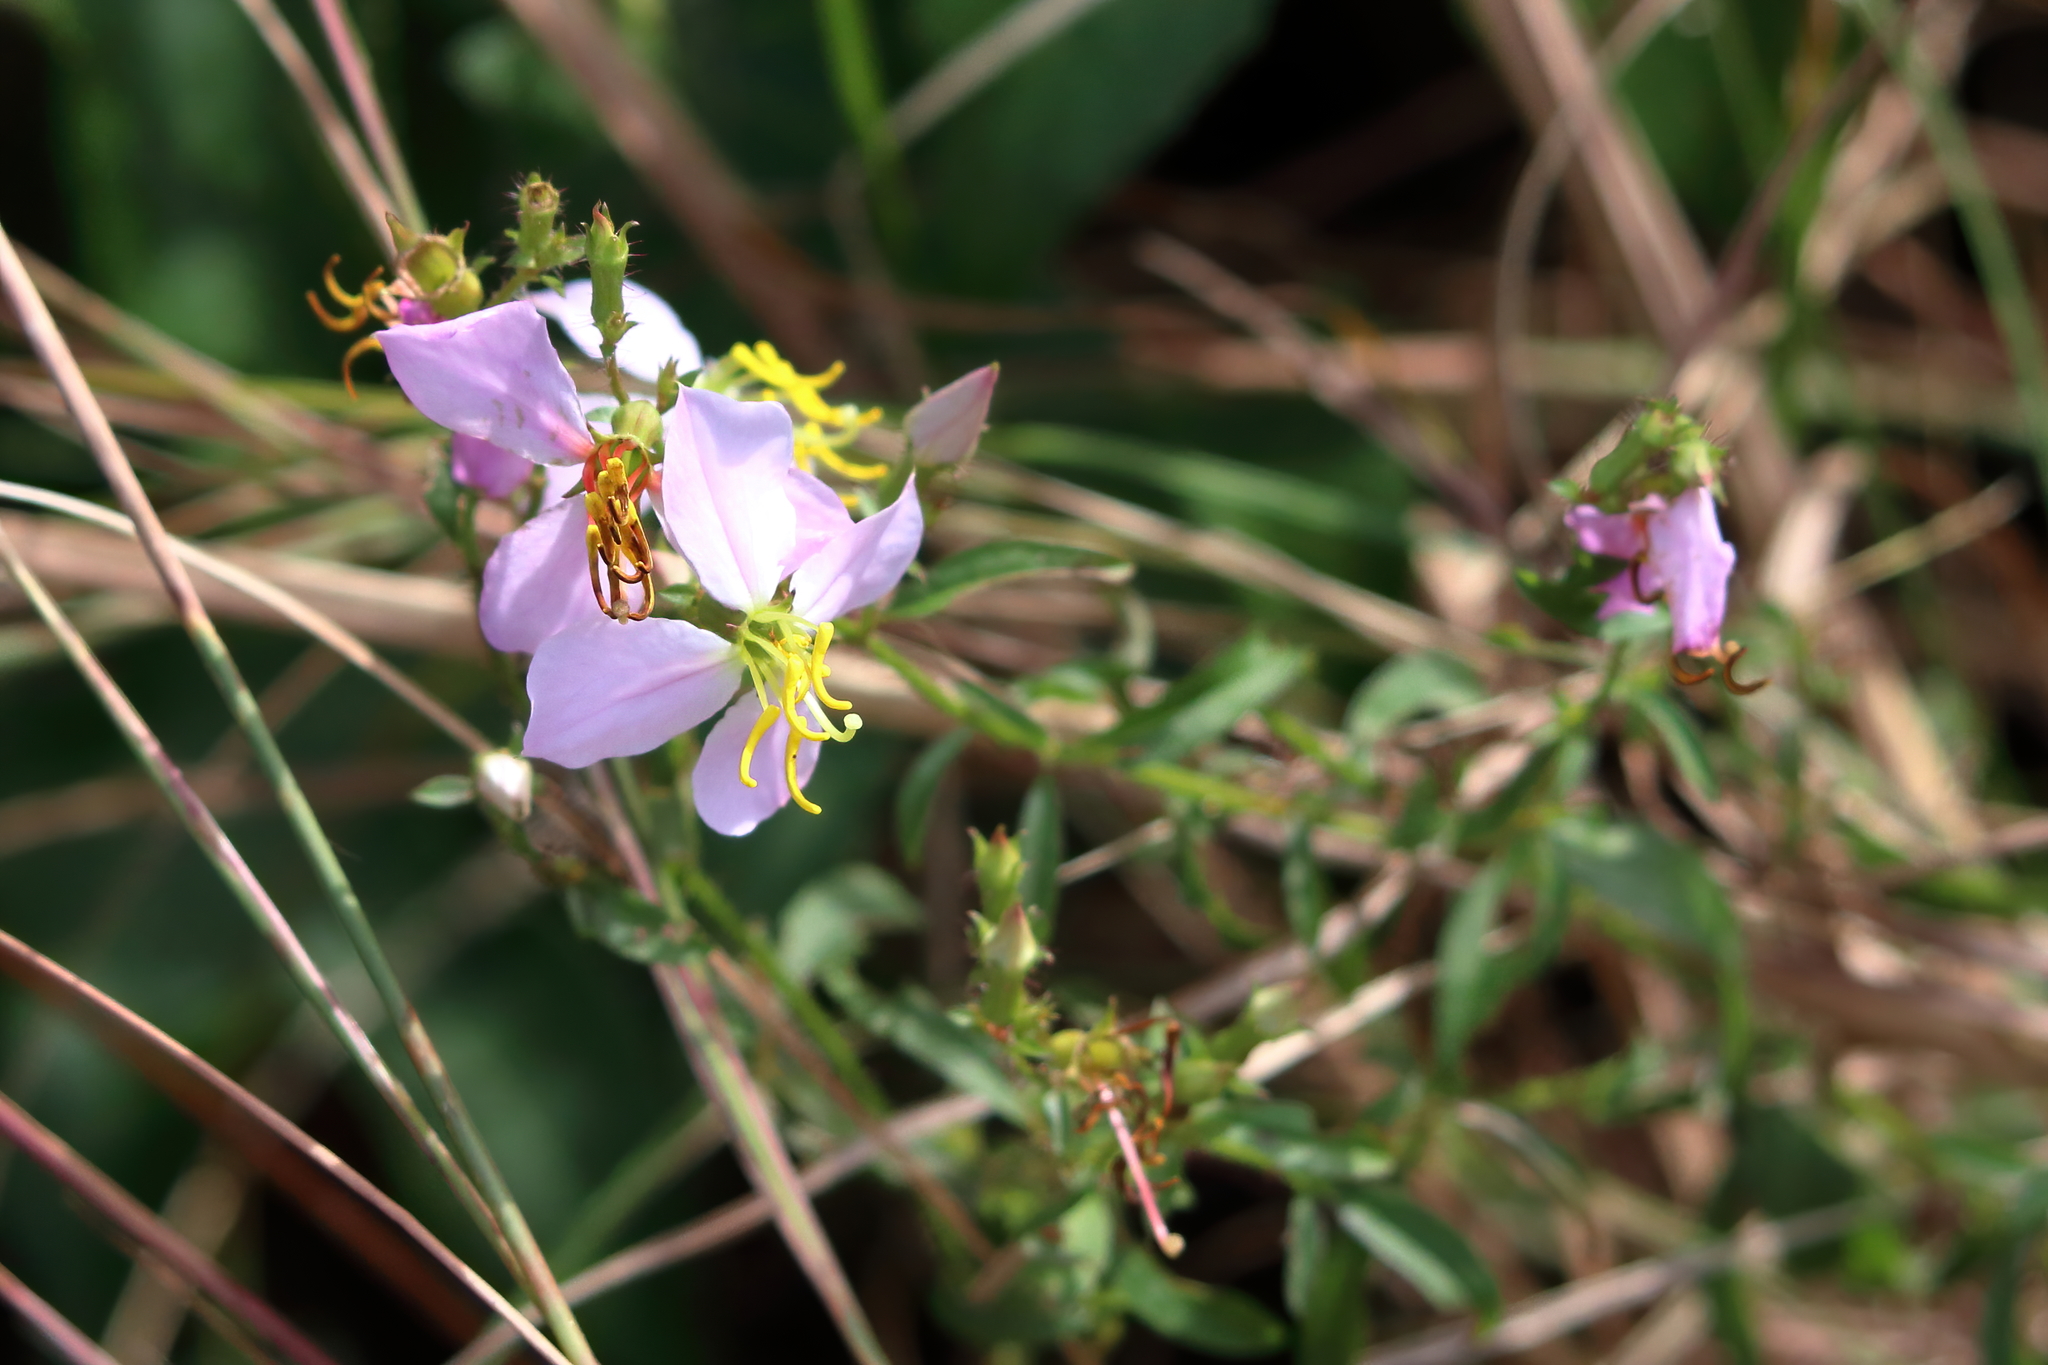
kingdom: Plantae
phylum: Tracheophyta
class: Magnoliopsida
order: Myrtales
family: Melastomataceae
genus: Rhexia
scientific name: Rhexia mariana
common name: Dull meadow-pitcher
